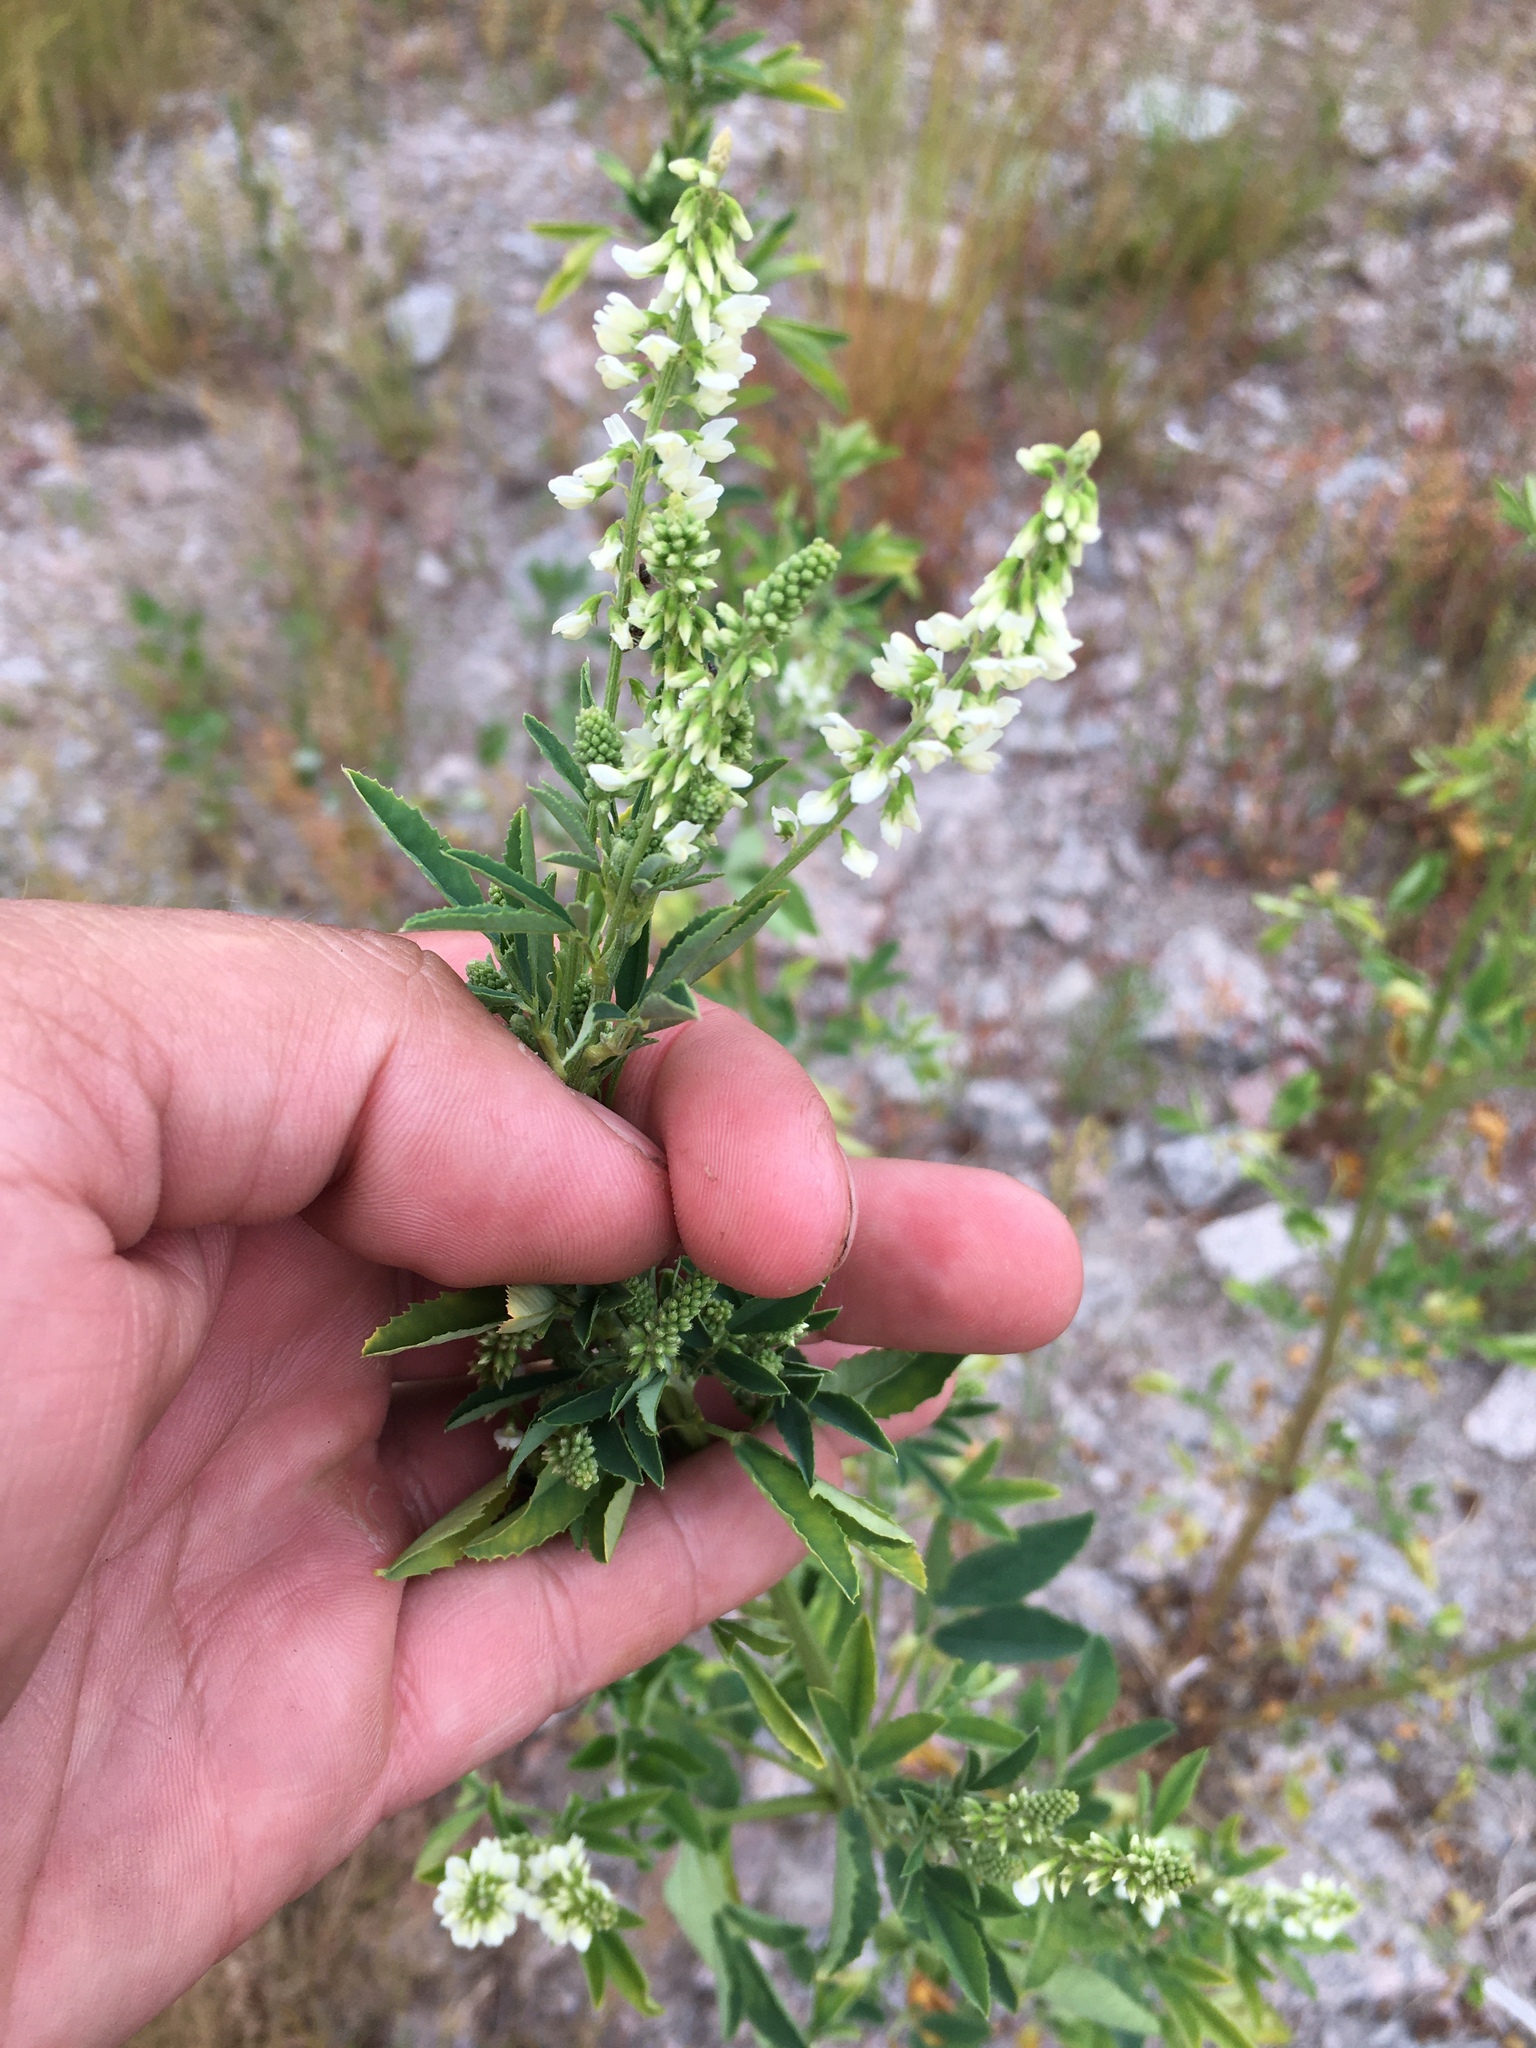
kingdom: Plantae
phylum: Tracheophyta
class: Magnoliopsida
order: Fabales
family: Fabaceae
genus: Melilotus
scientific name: Melilotus albus
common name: White melilot
